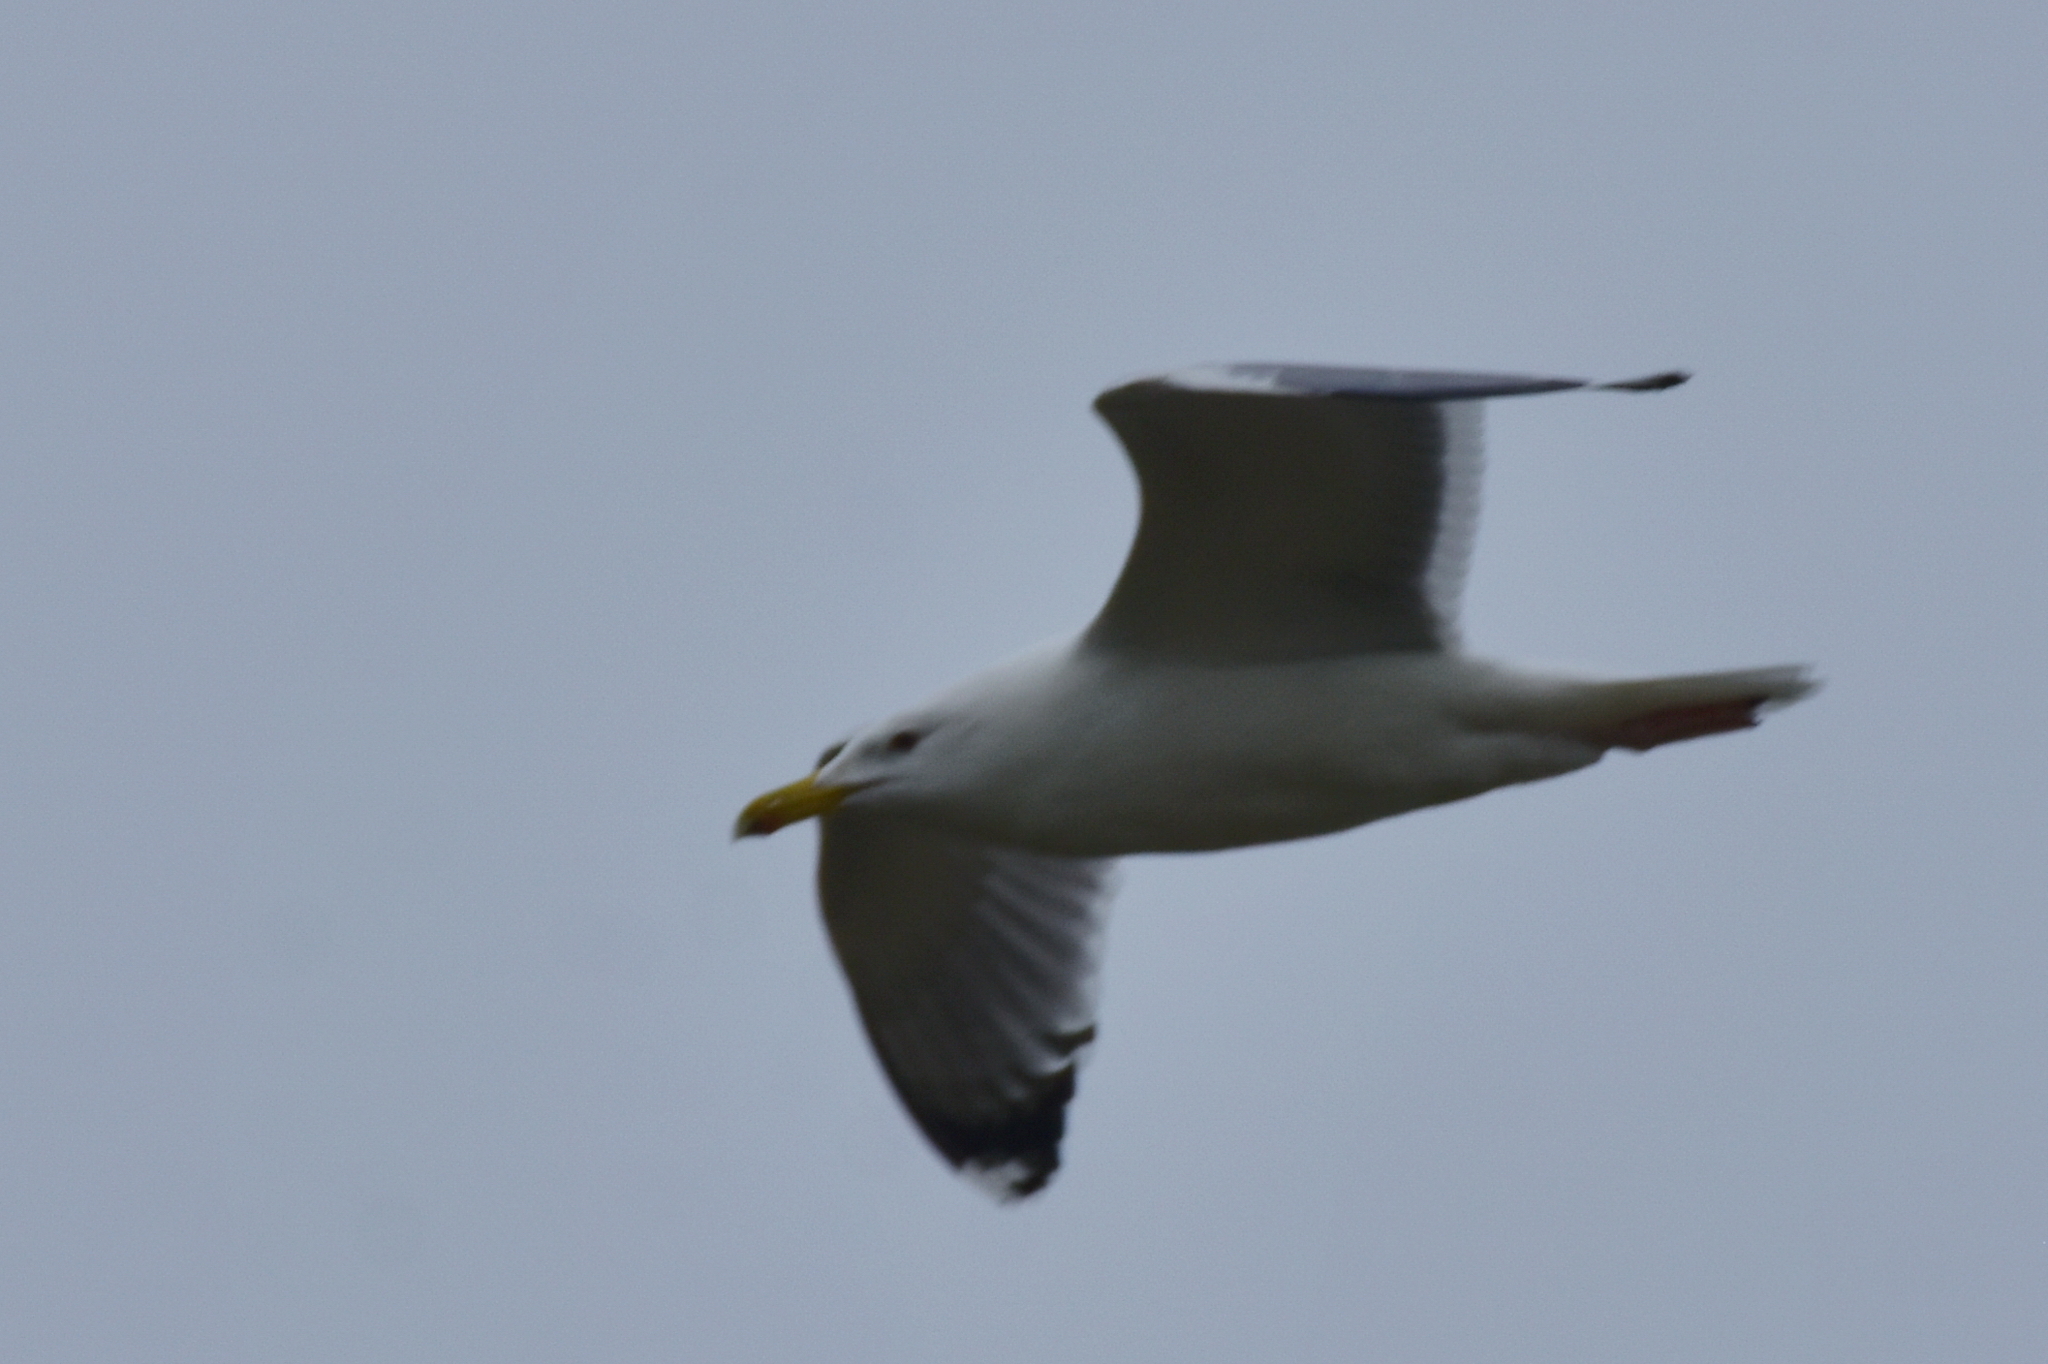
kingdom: Animalia
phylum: Chordata
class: Aves
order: Charadriiformes
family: Laridae
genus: Larus
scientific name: Larus cachinnans
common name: Caspian gull
